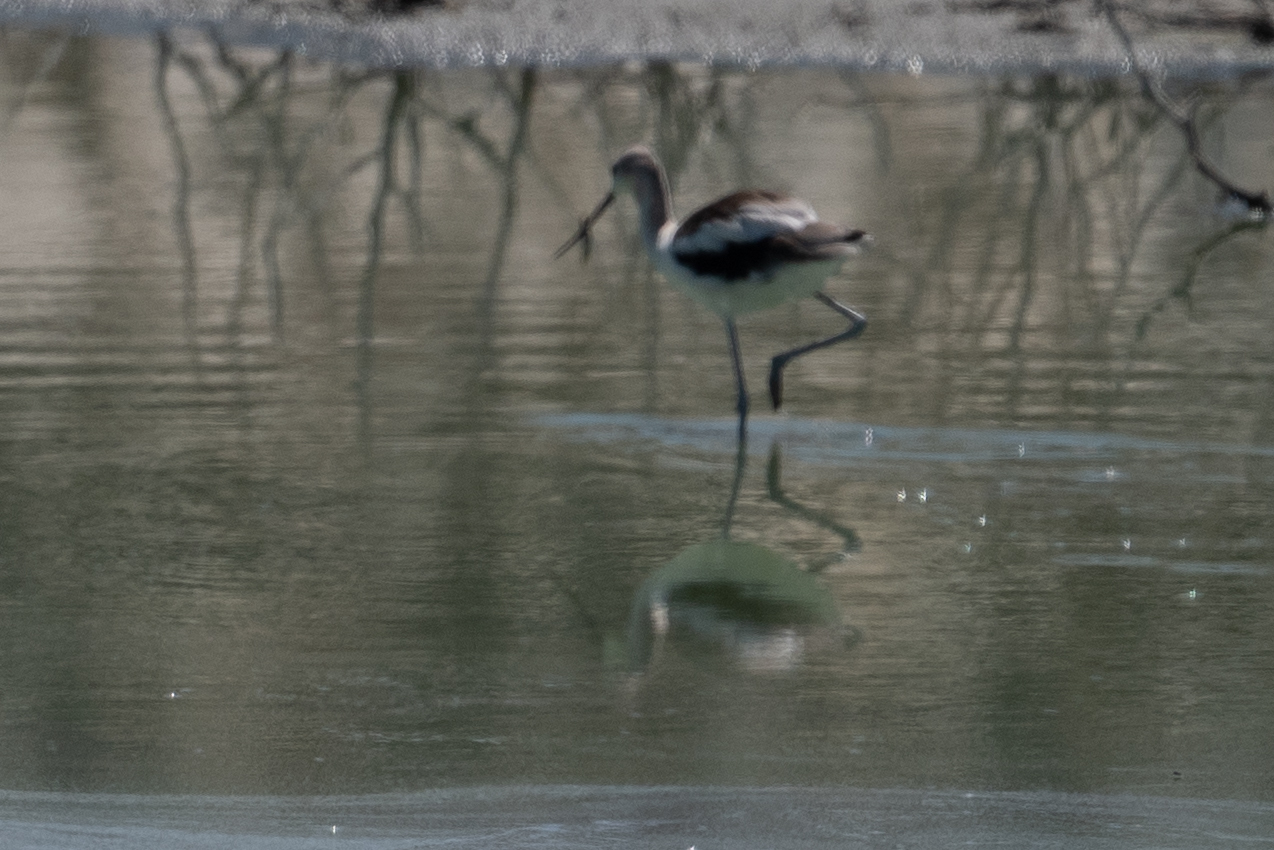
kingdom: Animalia
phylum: Chordata
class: Aves
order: Charadriiformes
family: Recurvirostridae
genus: Recurvirostra
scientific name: Recurvirostra americana
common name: American avocet
